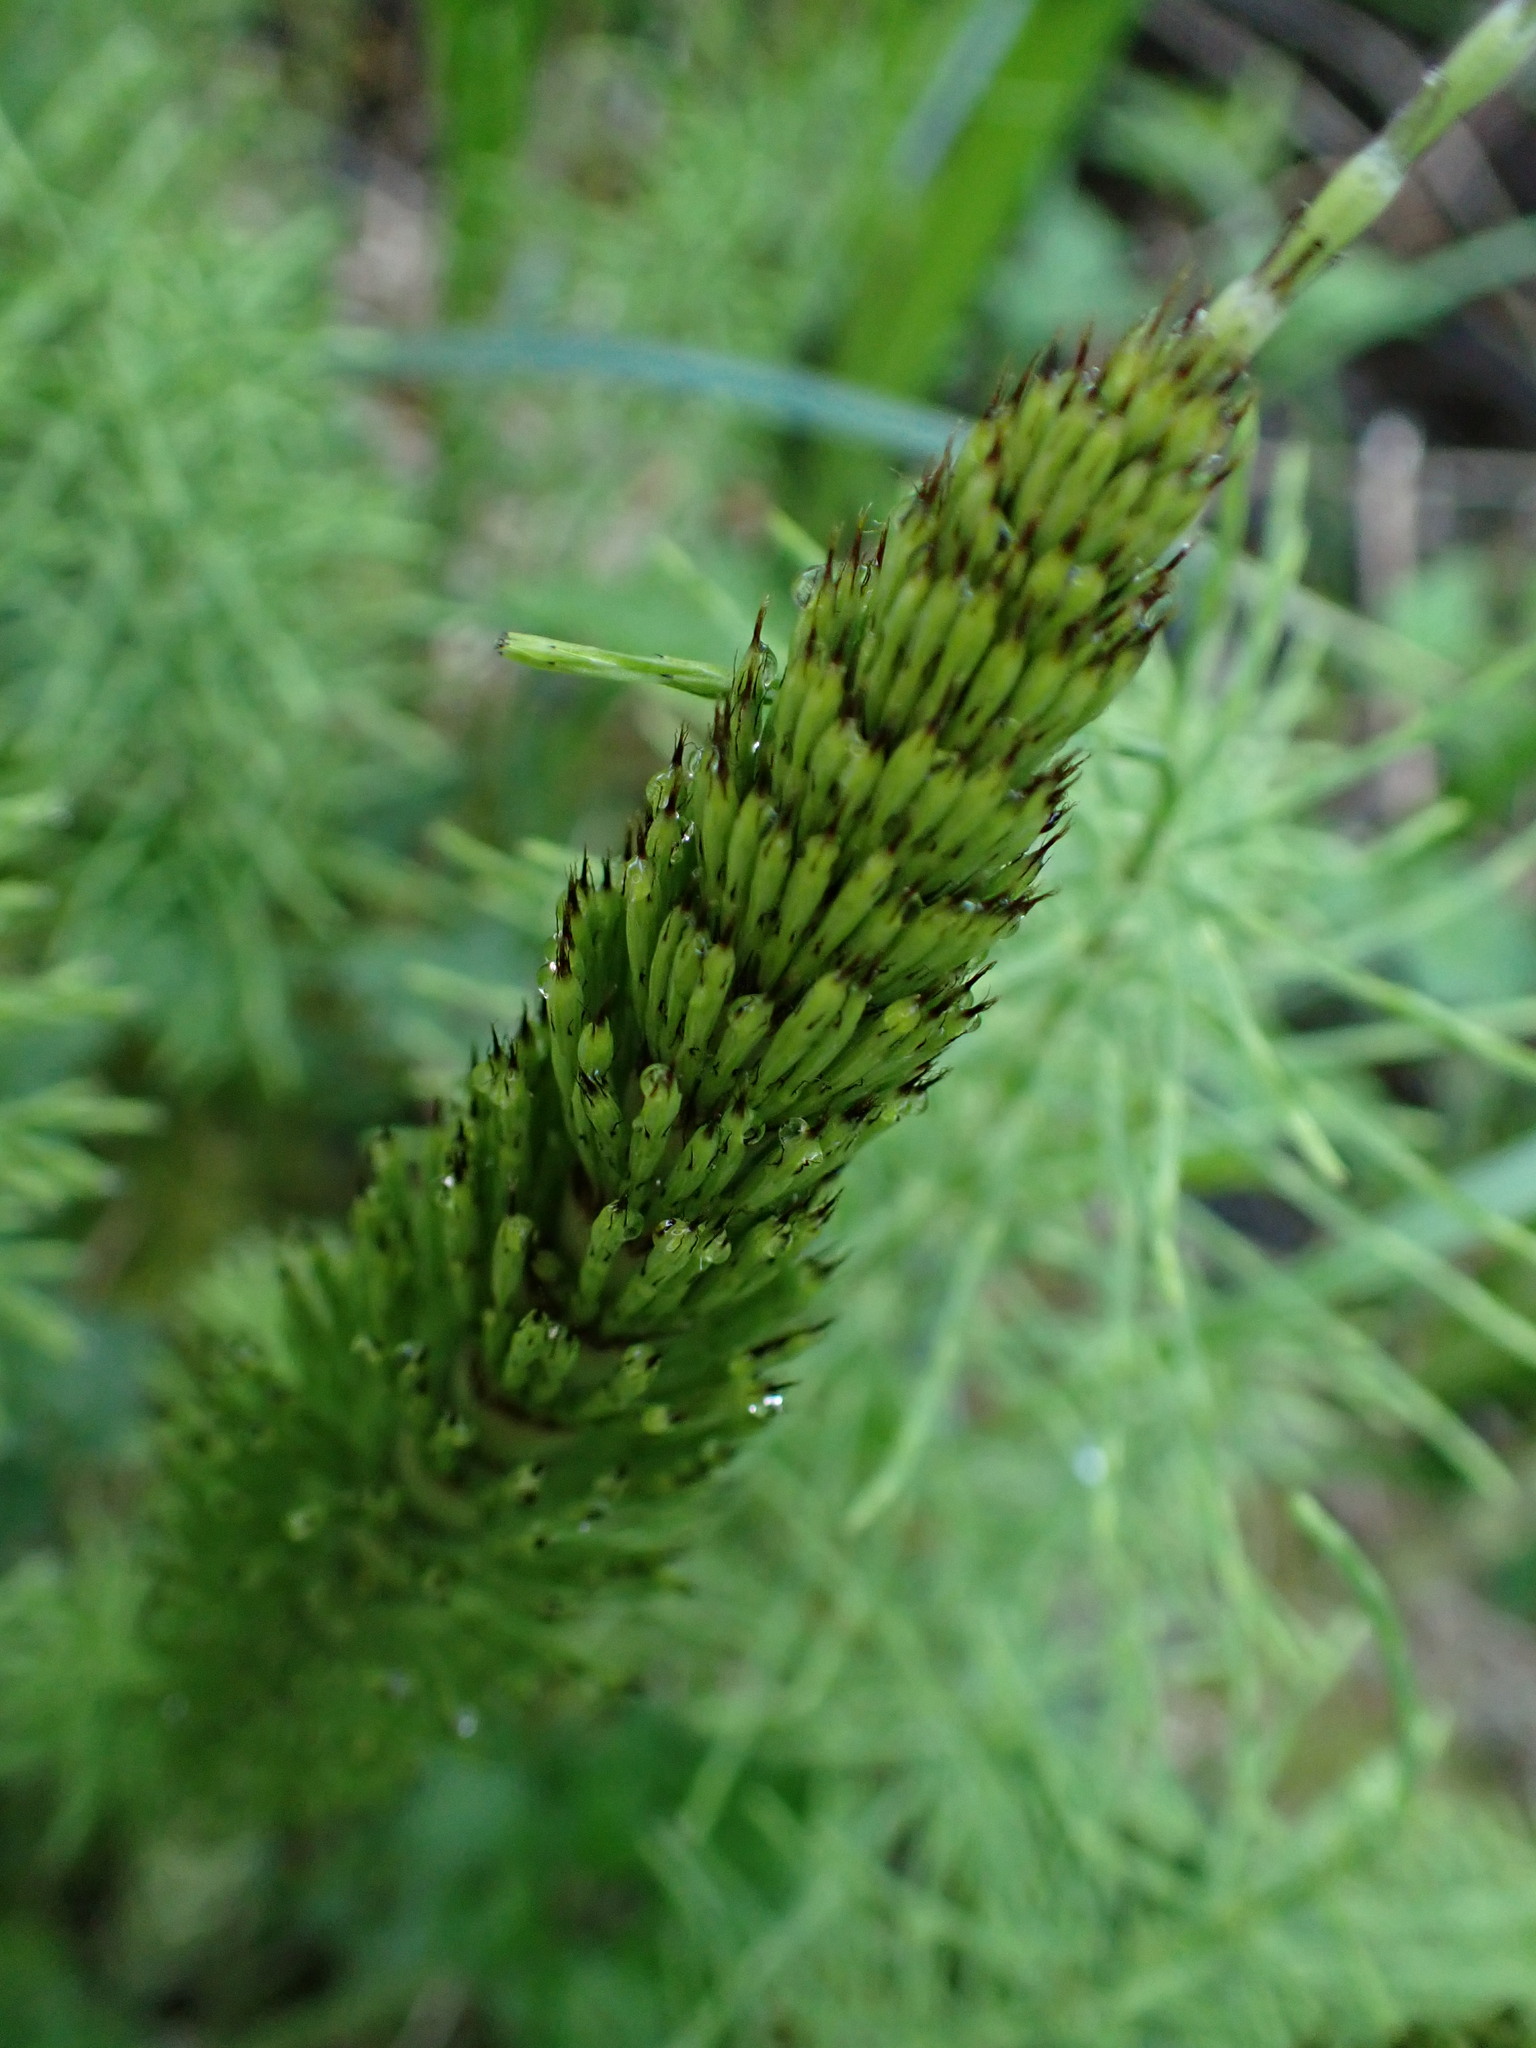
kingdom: Plantae
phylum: Tracheophyta
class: Polypodiopsida
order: Equisetales
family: Equisetaceae
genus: Equisetum
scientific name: Equisetum braunii
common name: Braun's horsetail
